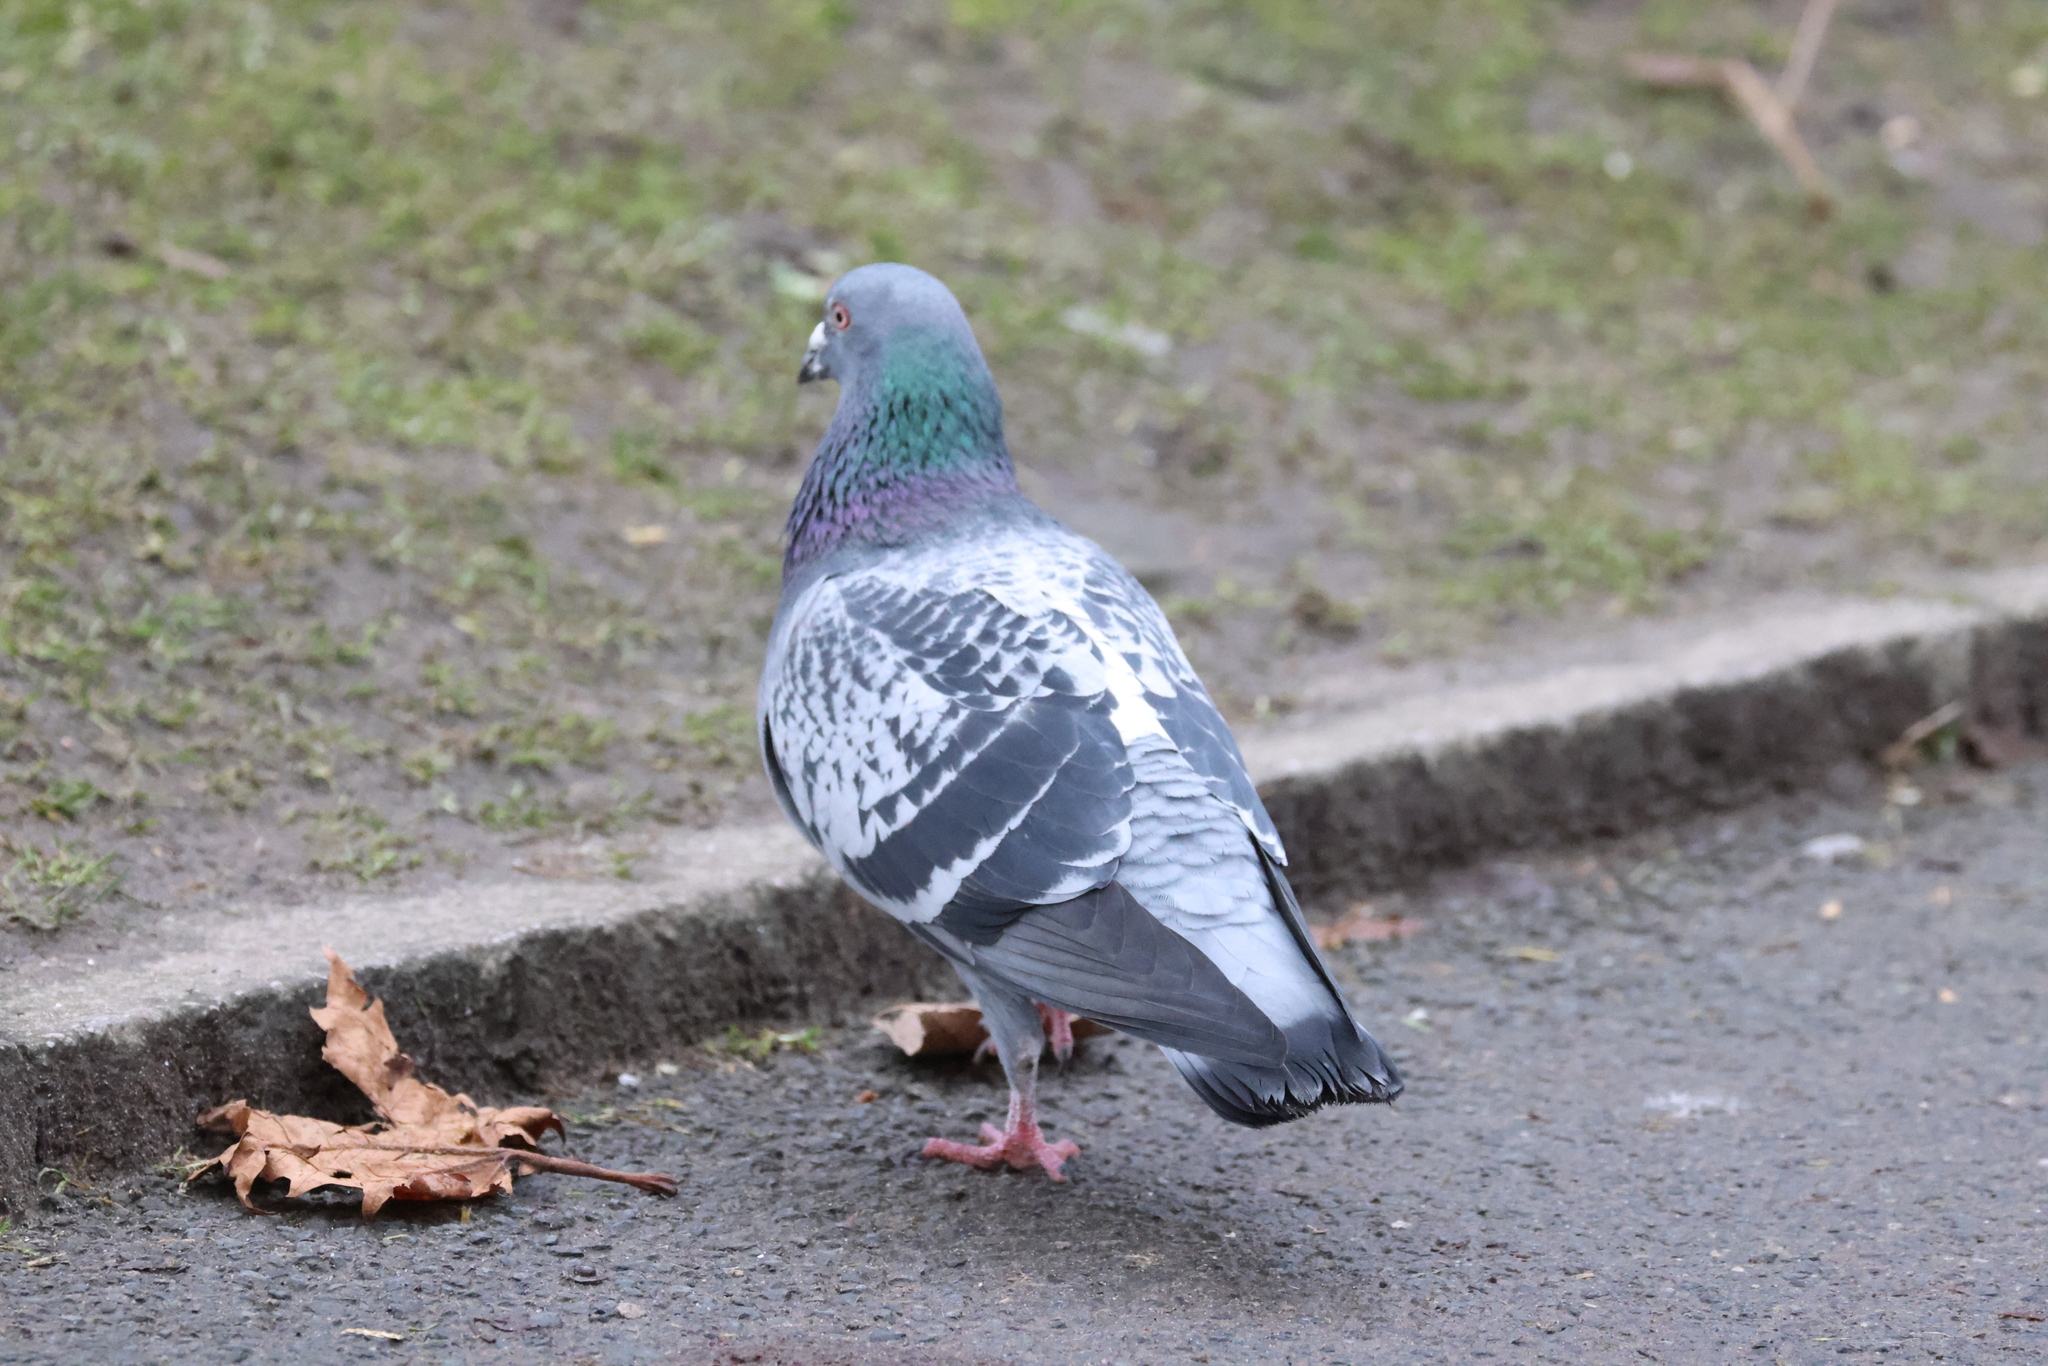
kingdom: Animalia
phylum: Chordata
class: Aves
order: Columbiformes
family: Columbidae
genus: Columba
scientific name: Columba livia
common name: Rock pigeon
